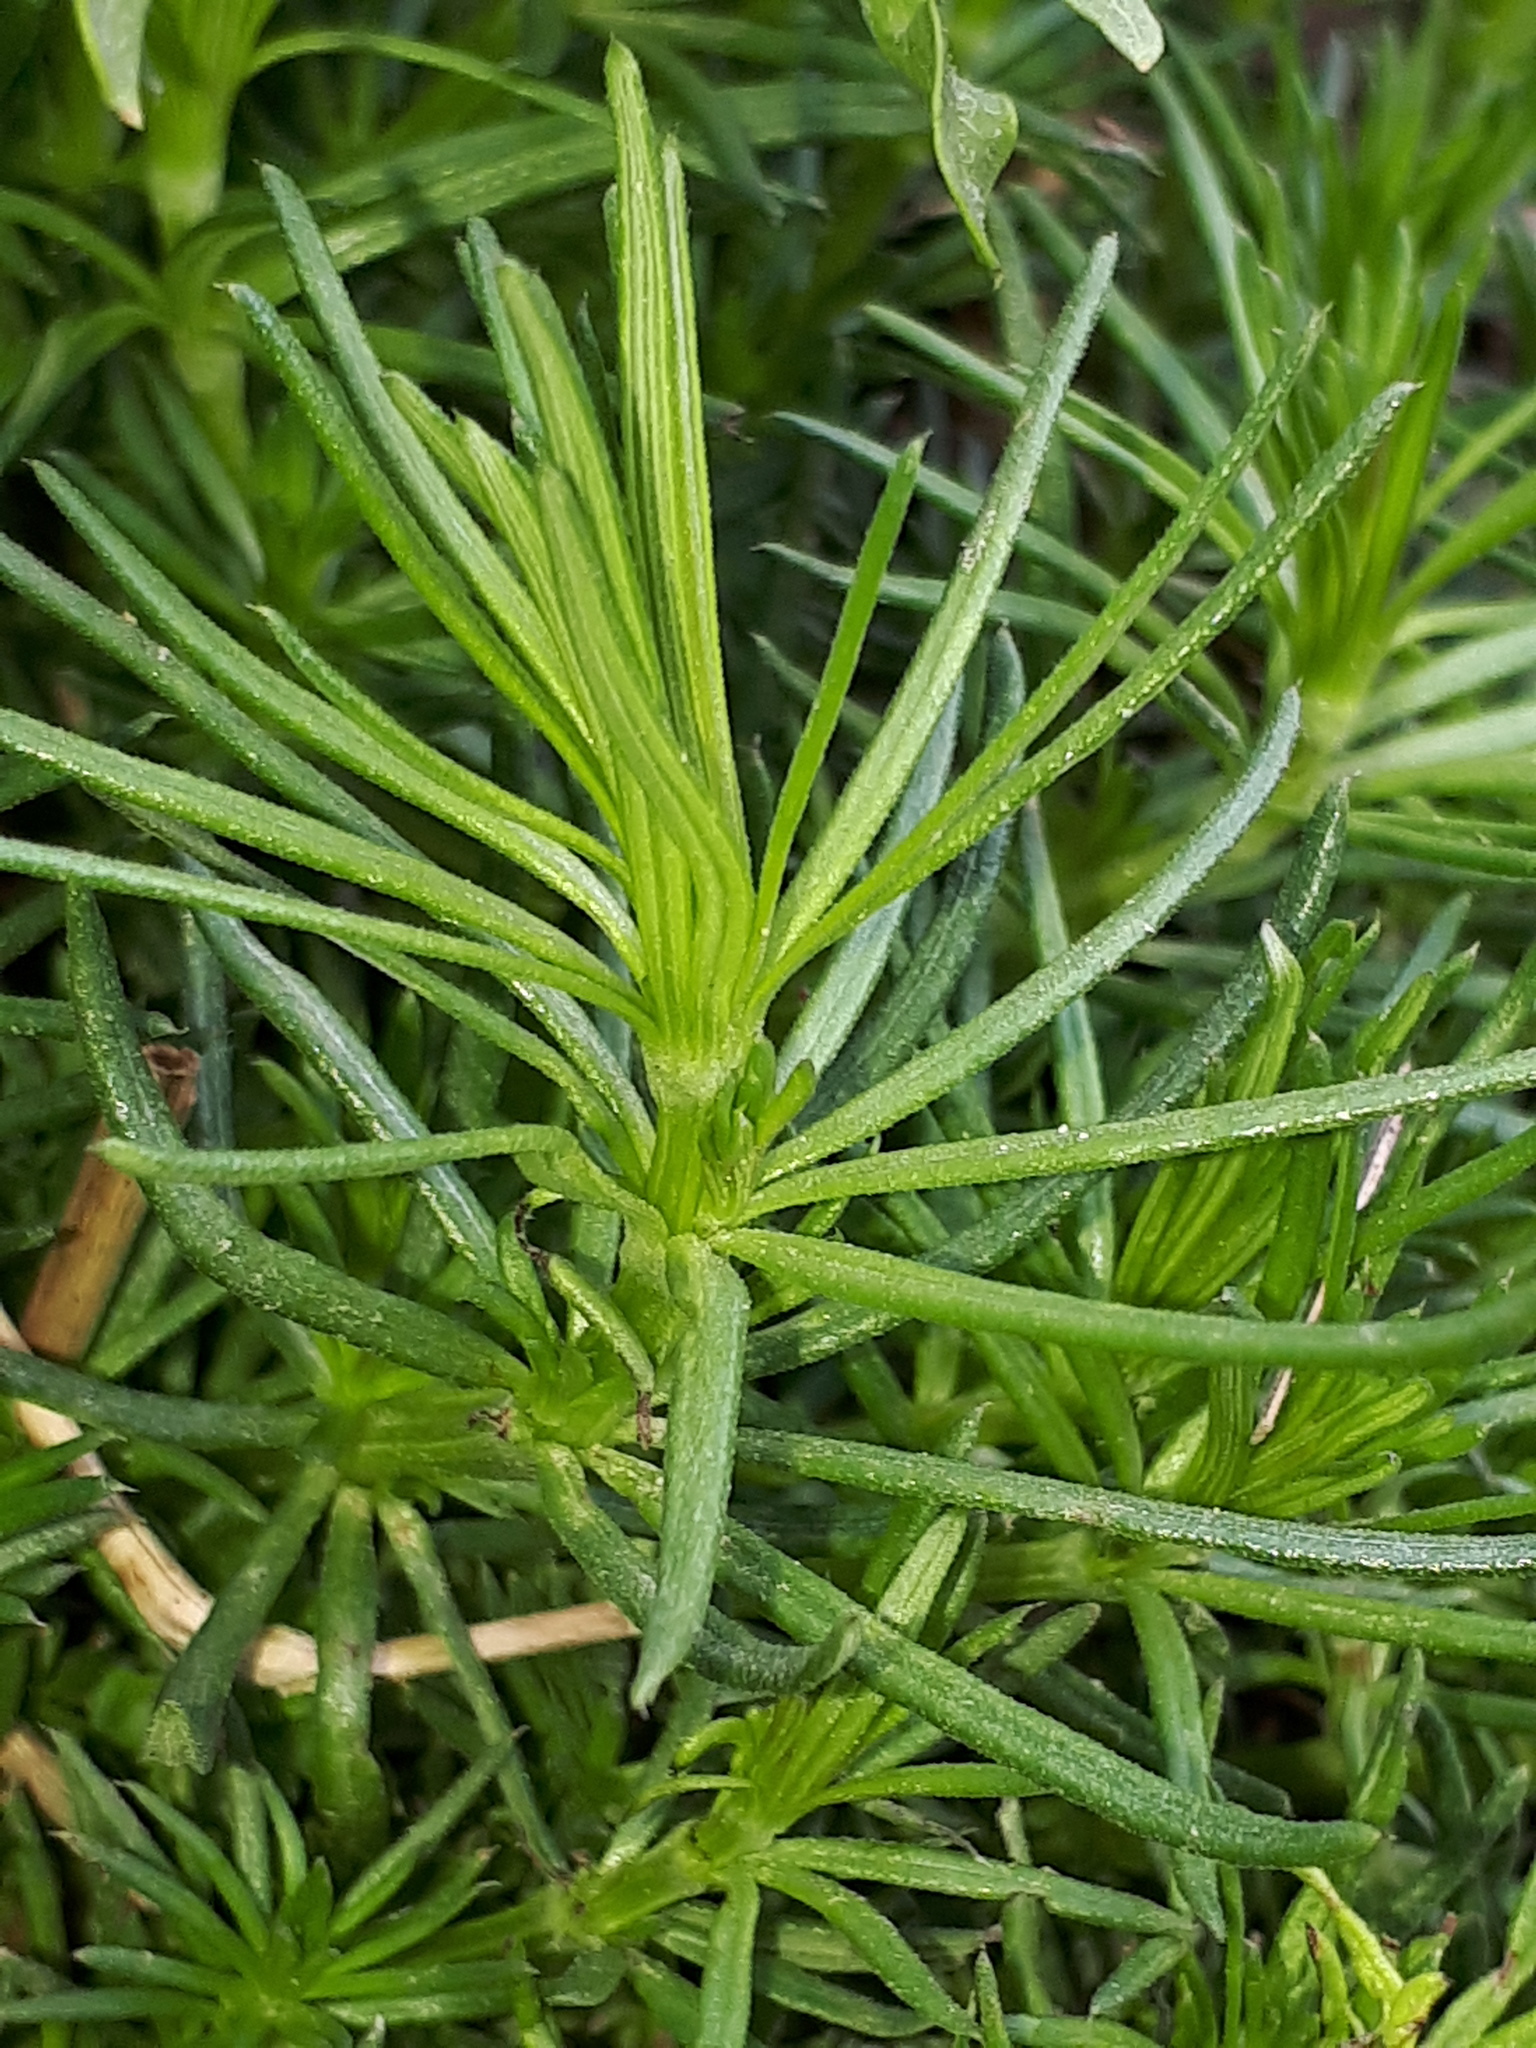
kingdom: Plantae
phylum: Tracheophyta
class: Magnoliopsida
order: Gentianales
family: Rubiaceae
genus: Galium
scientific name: Galium verum
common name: Lady's bedstraw
